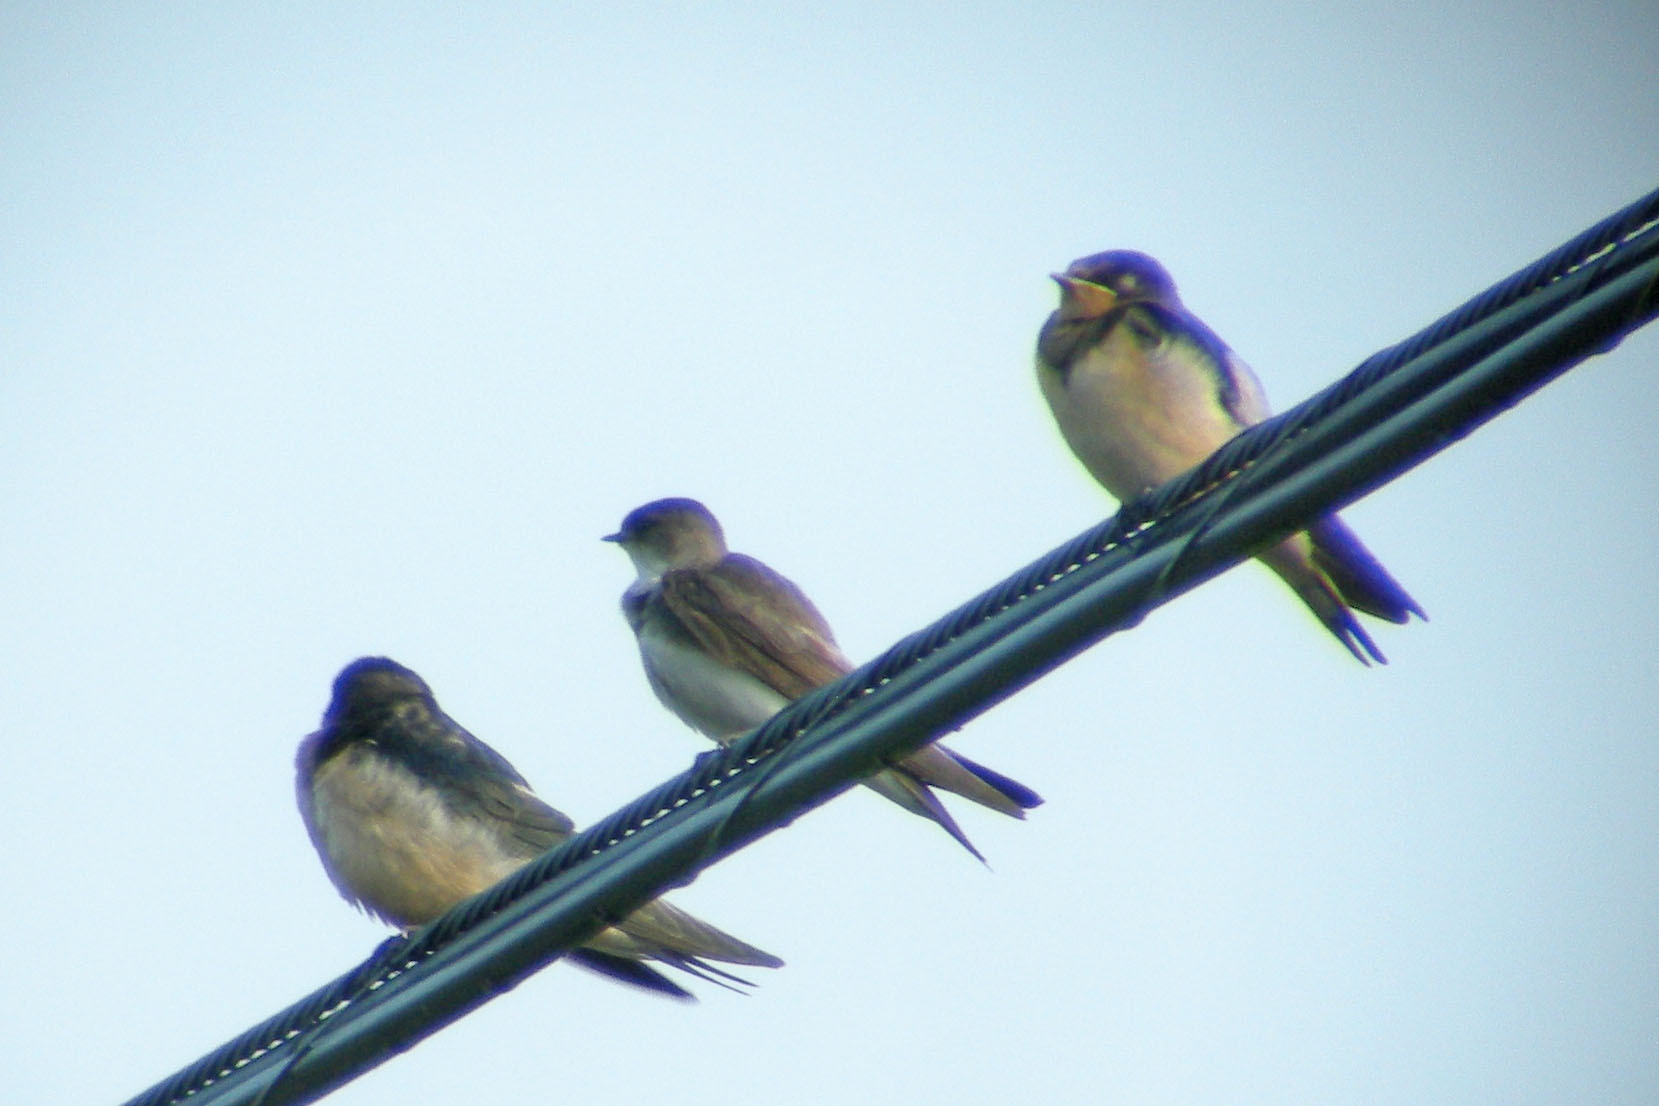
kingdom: Animalia
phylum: Chordata
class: Aves
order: Passeriformes
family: Hirundinidae
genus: Hirundo
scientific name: Hirundo rustica
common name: Barn swallow
